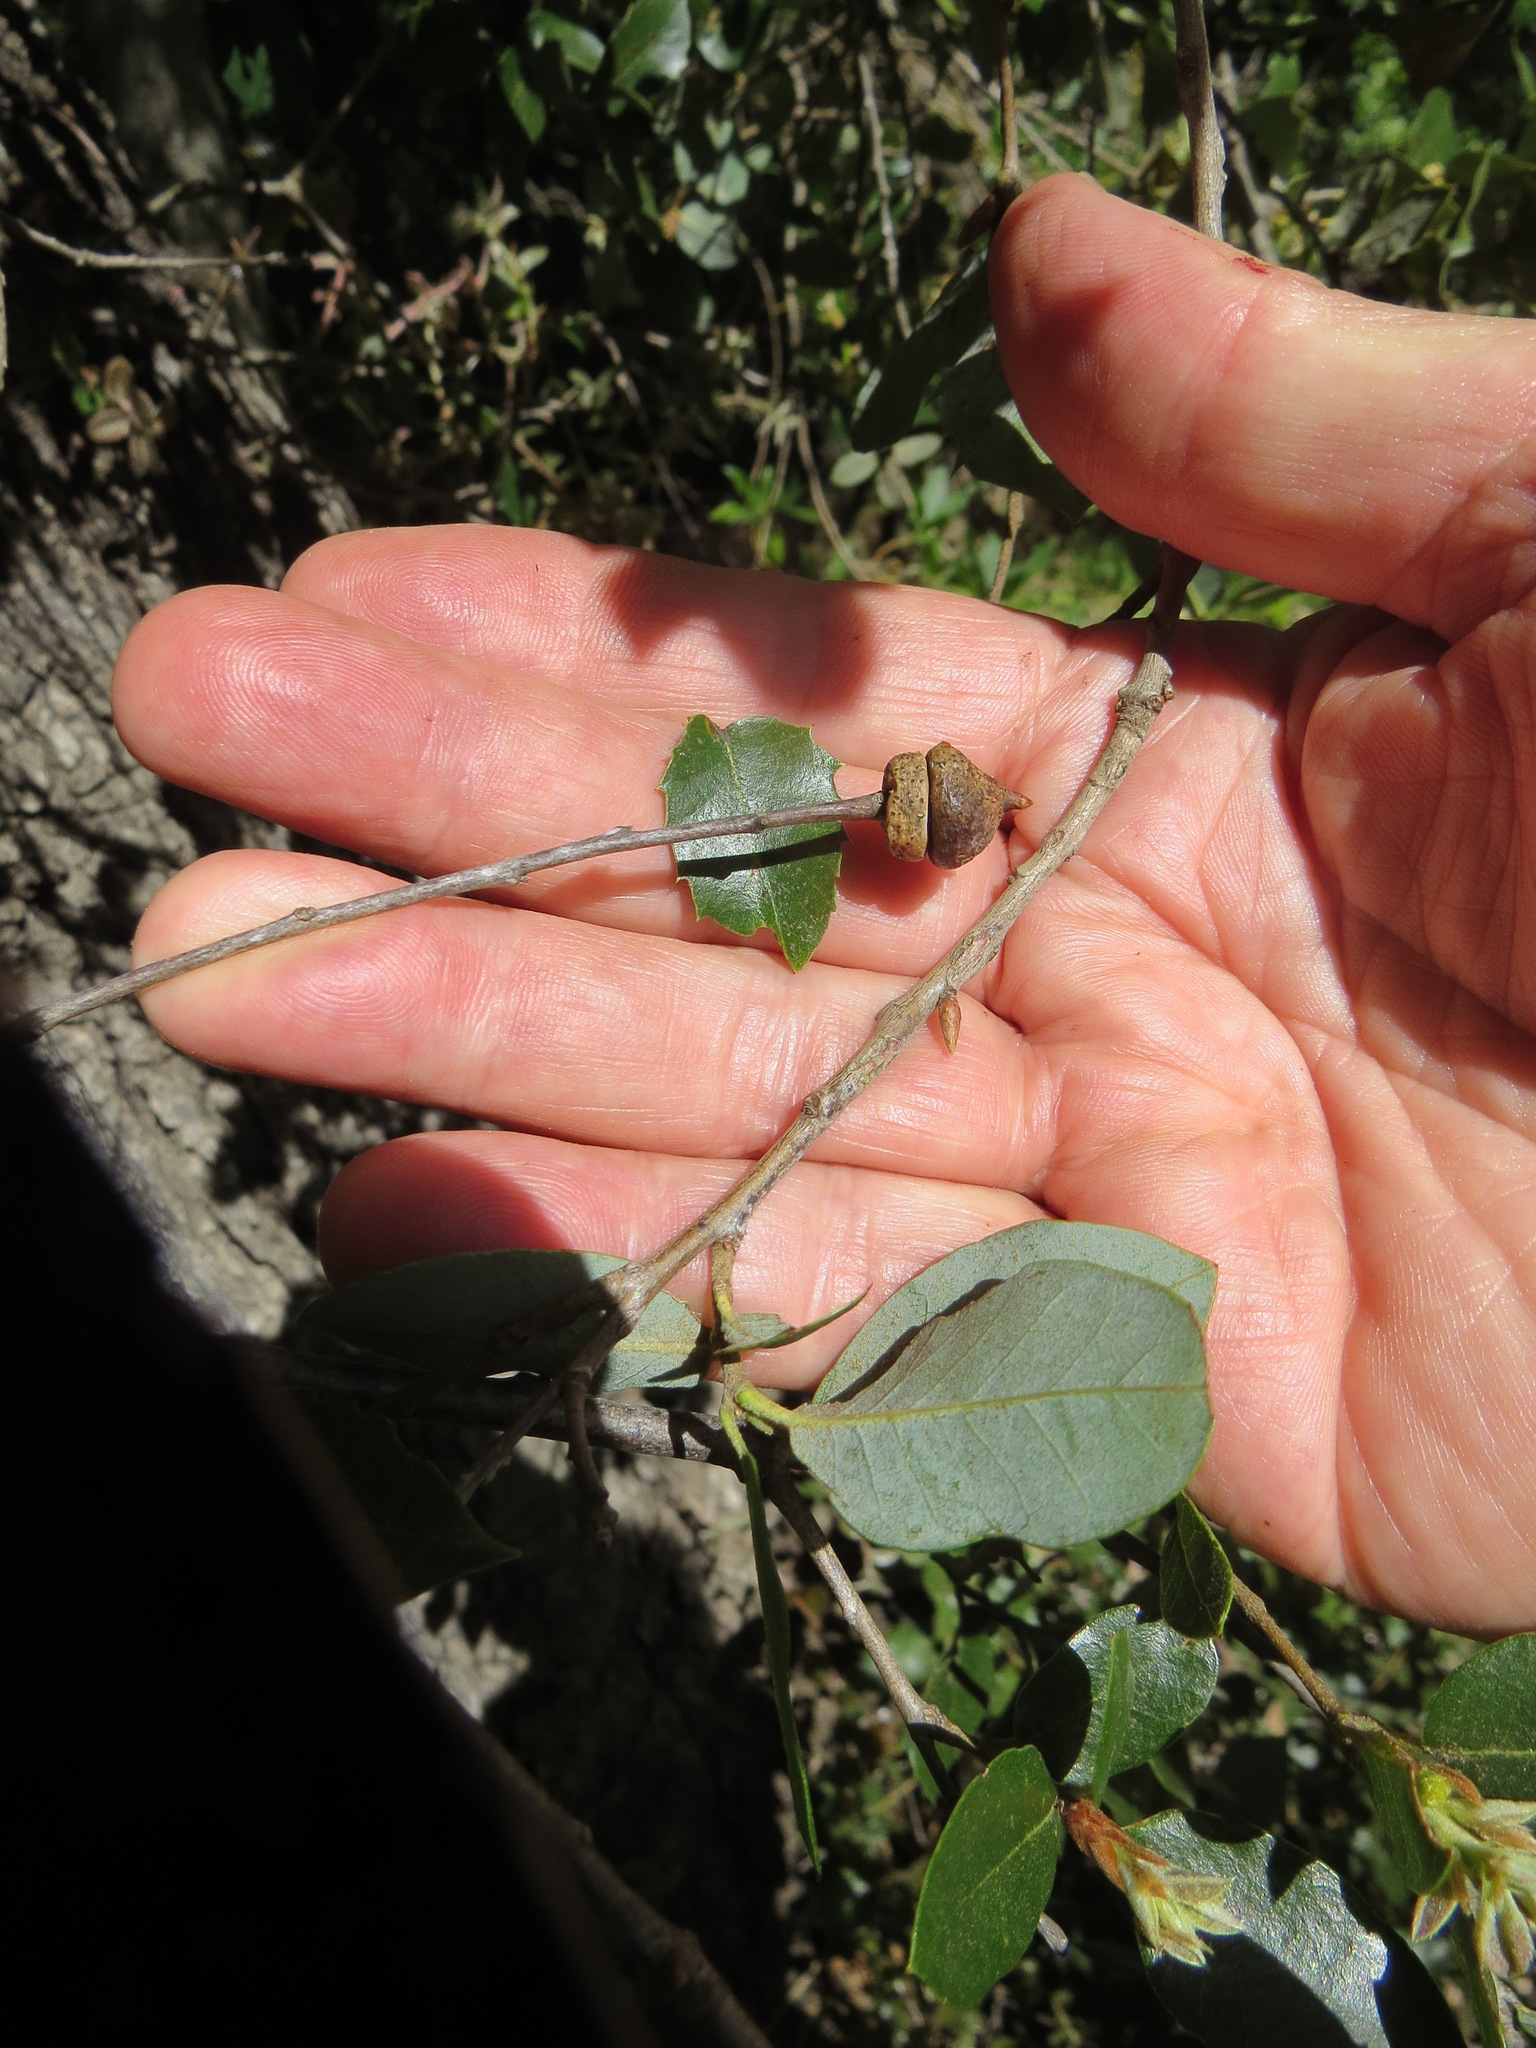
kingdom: Animalia
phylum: Arthropoda
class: Insecta
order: Hymenoptera
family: Cynipidae
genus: Heteroecus
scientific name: Heteroecus
